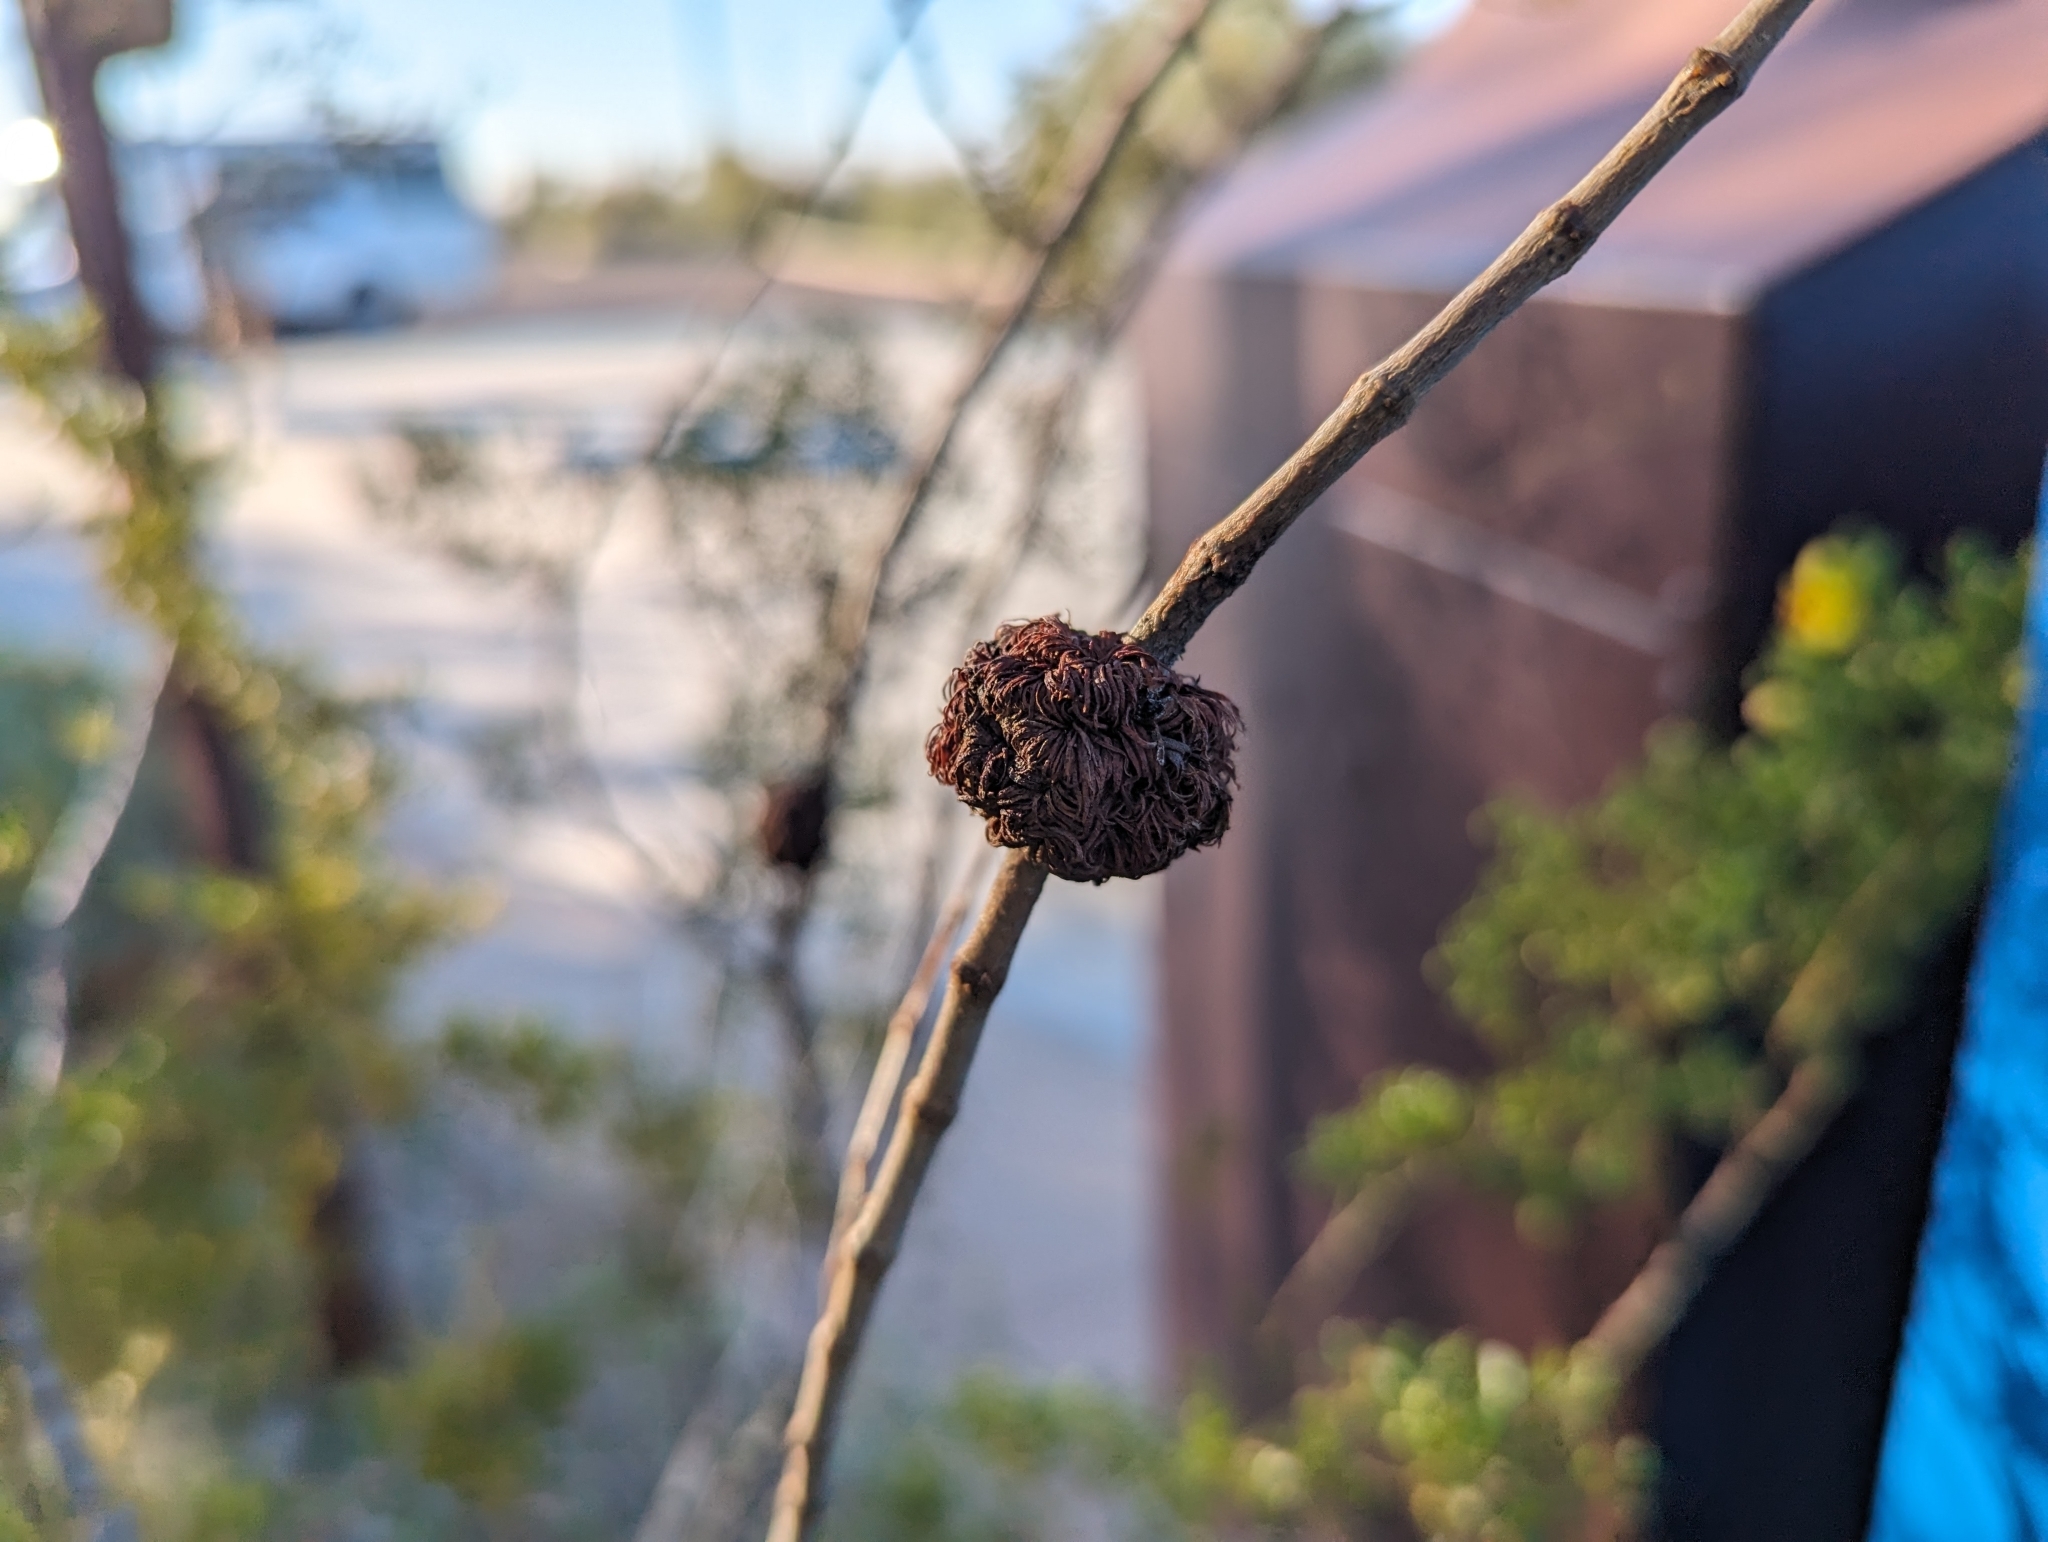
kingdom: Animalia
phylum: Arthropoda
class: Insecta
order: Diptera
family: Cecidomyiidae
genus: Asphondylia
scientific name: Asphondylia auripila
